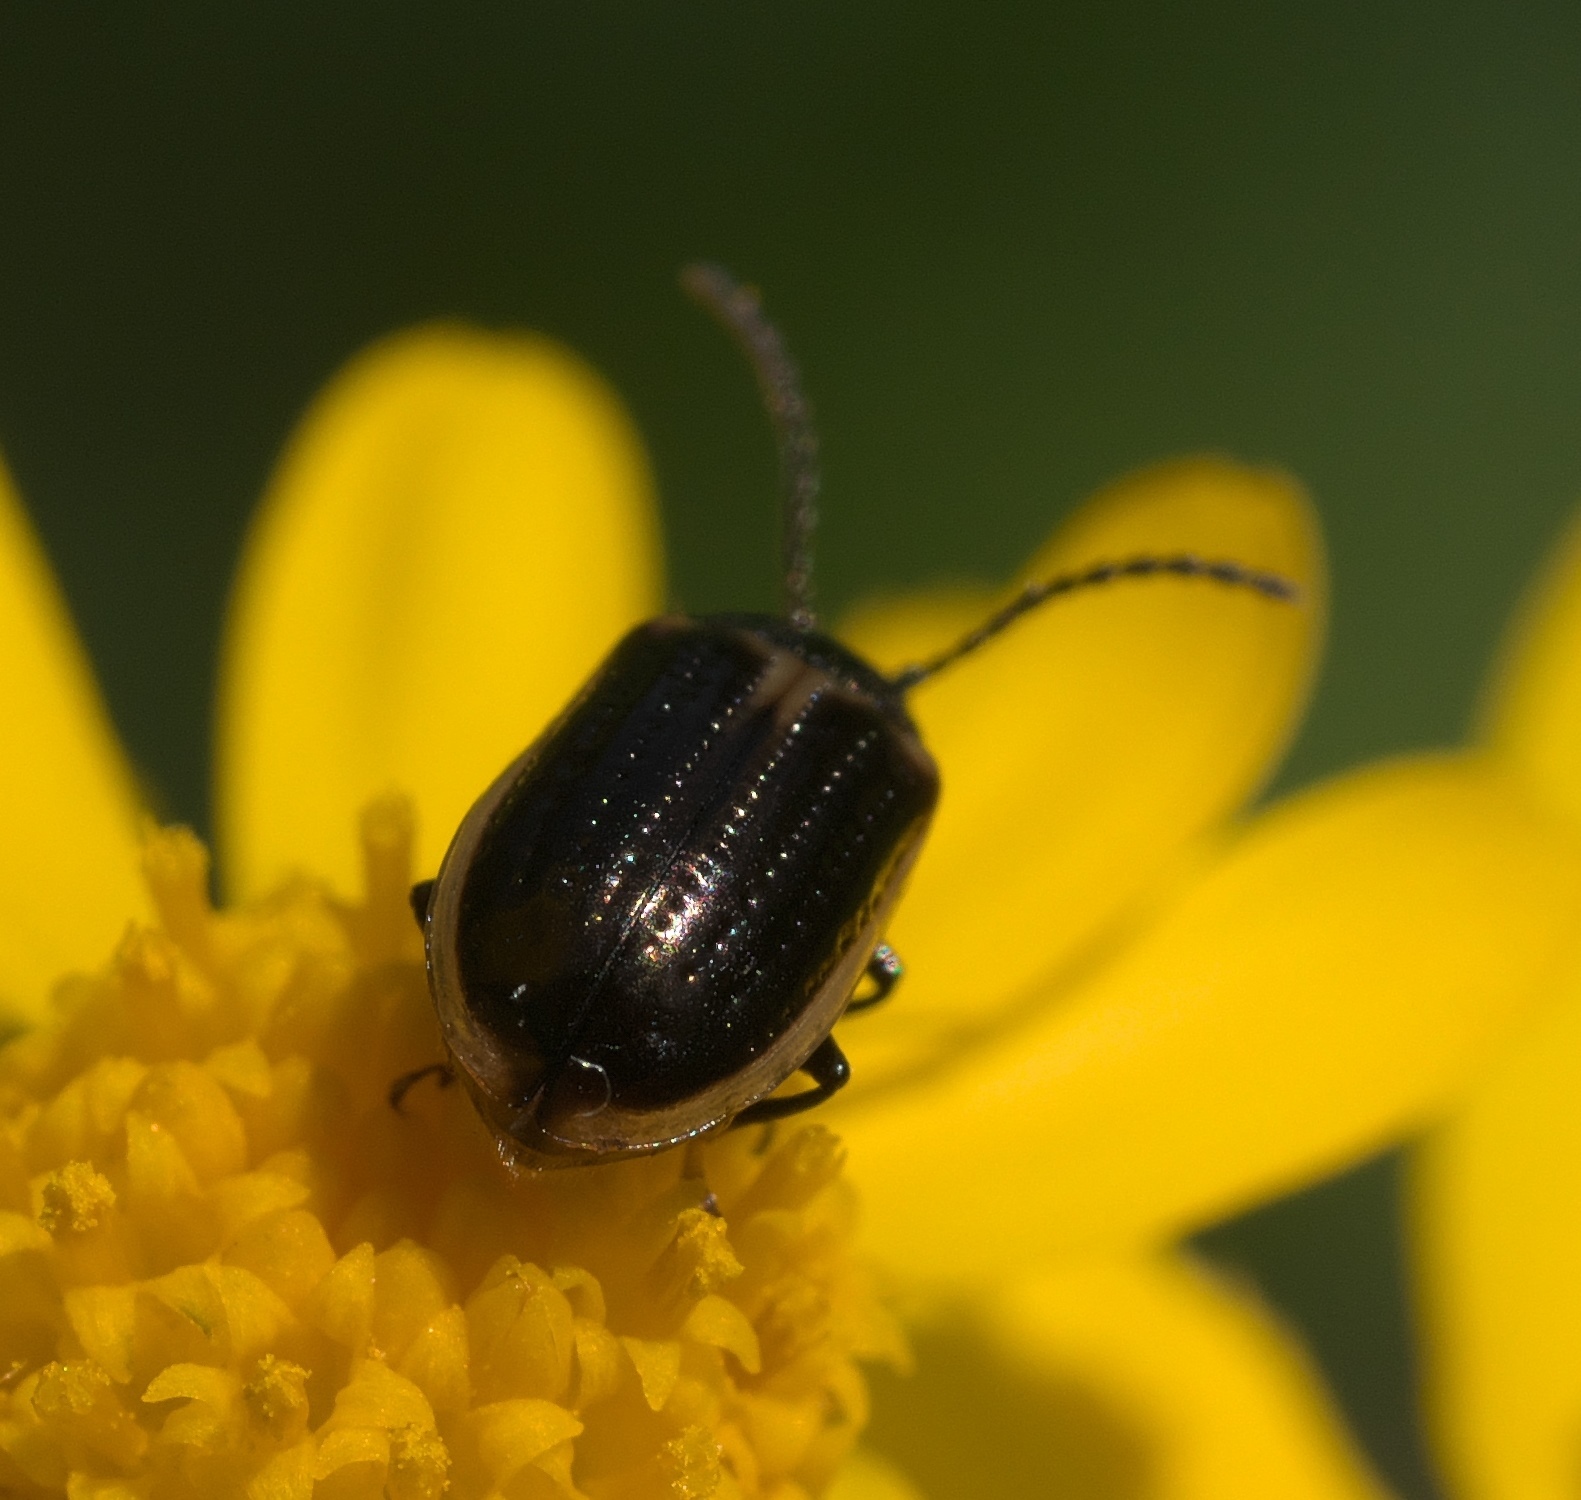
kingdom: Animalia
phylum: Arthropoda
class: Insecta
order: Coleoptera
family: Chrysomelidae
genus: Microtheca
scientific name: Microtheca ochroloma
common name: Leaf beetle
